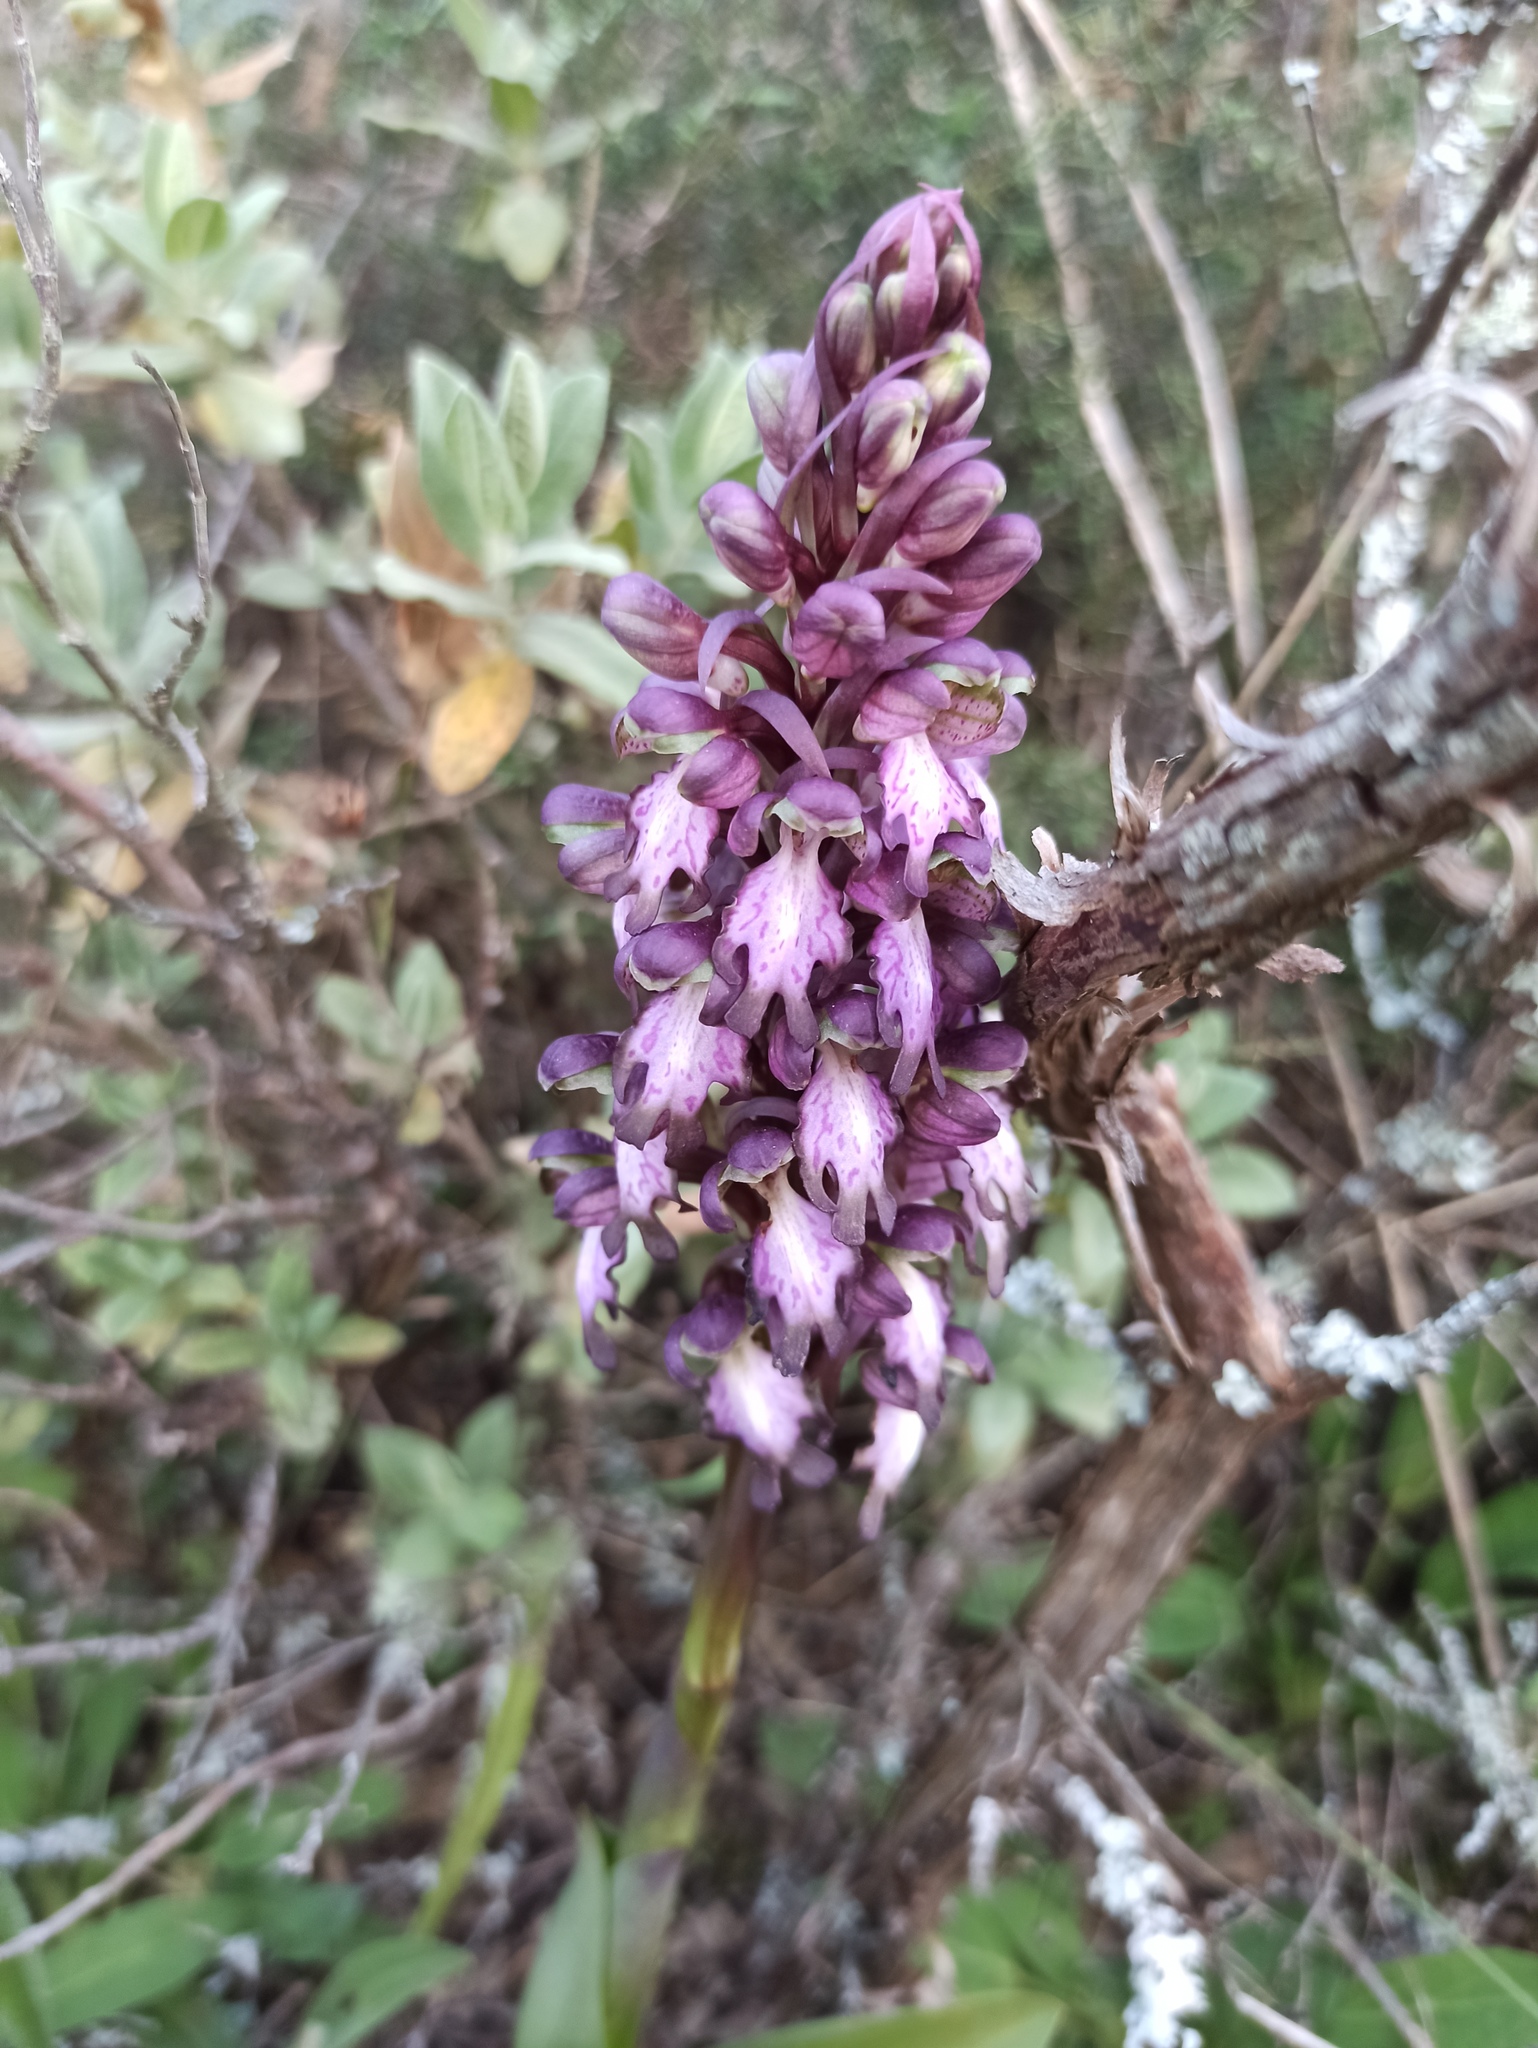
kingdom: Plantae
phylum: Tracheophyta
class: Liliopsida
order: Asparagales
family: Orchidaceae
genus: Himantoglossum
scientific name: Himantoglossum robertianum
